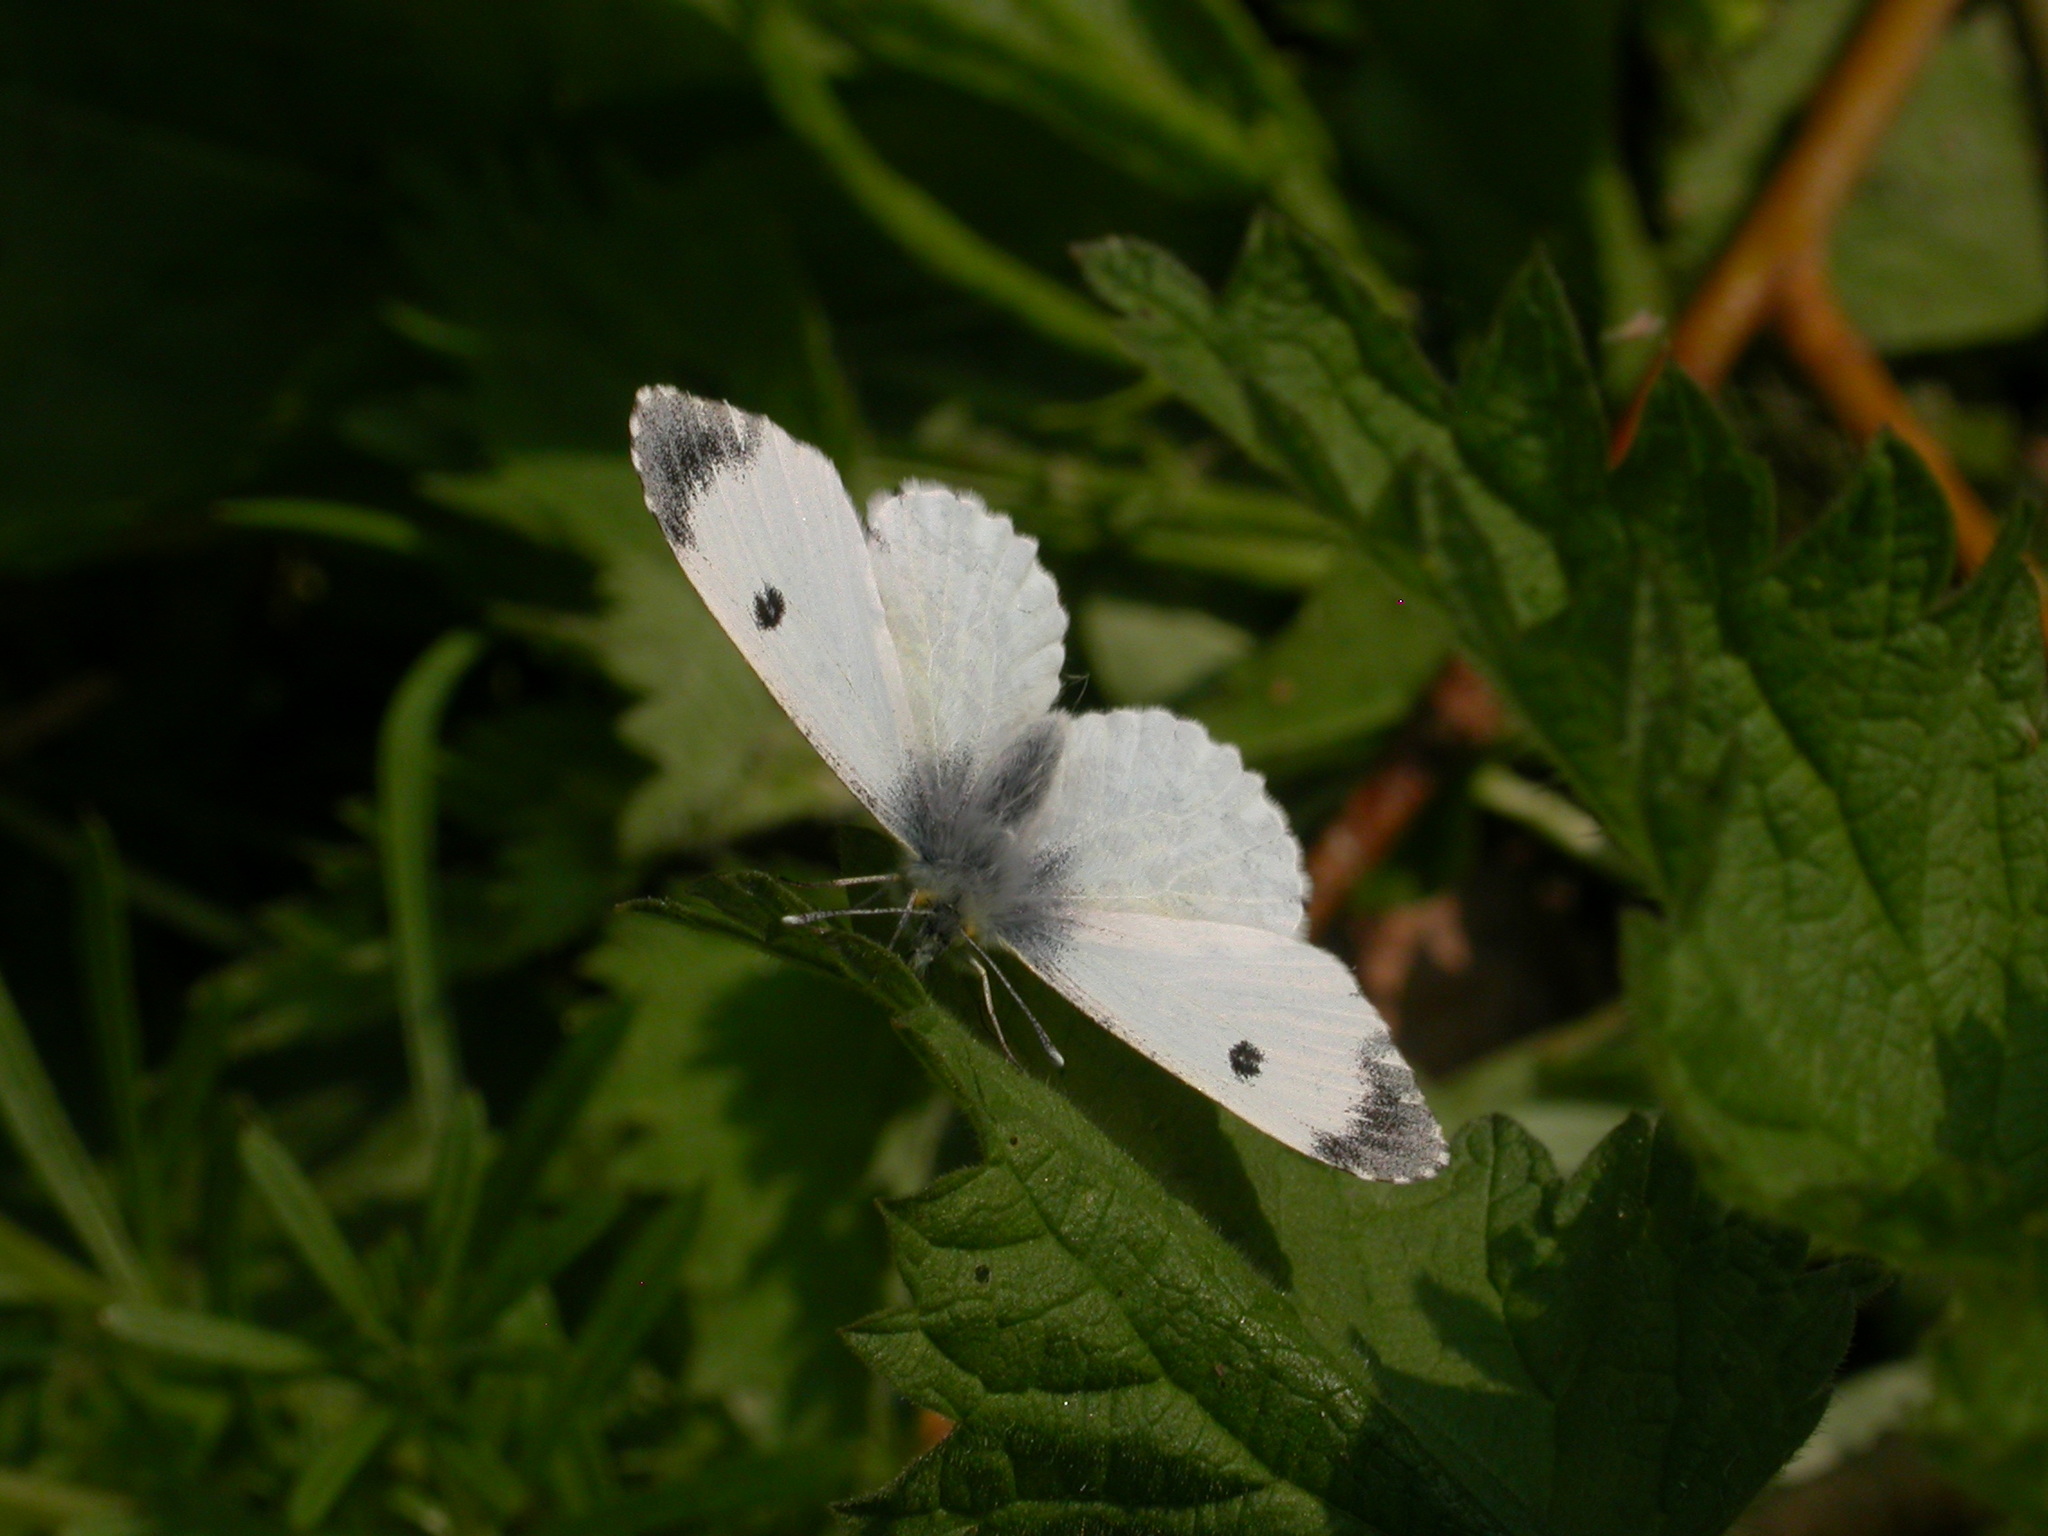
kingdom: Animalia
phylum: Arthropoda
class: Insecta
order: Lepidoptera
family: Pieridae
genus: Anthocharis
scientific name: Anthocharis cardamines
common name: Orange-tip
